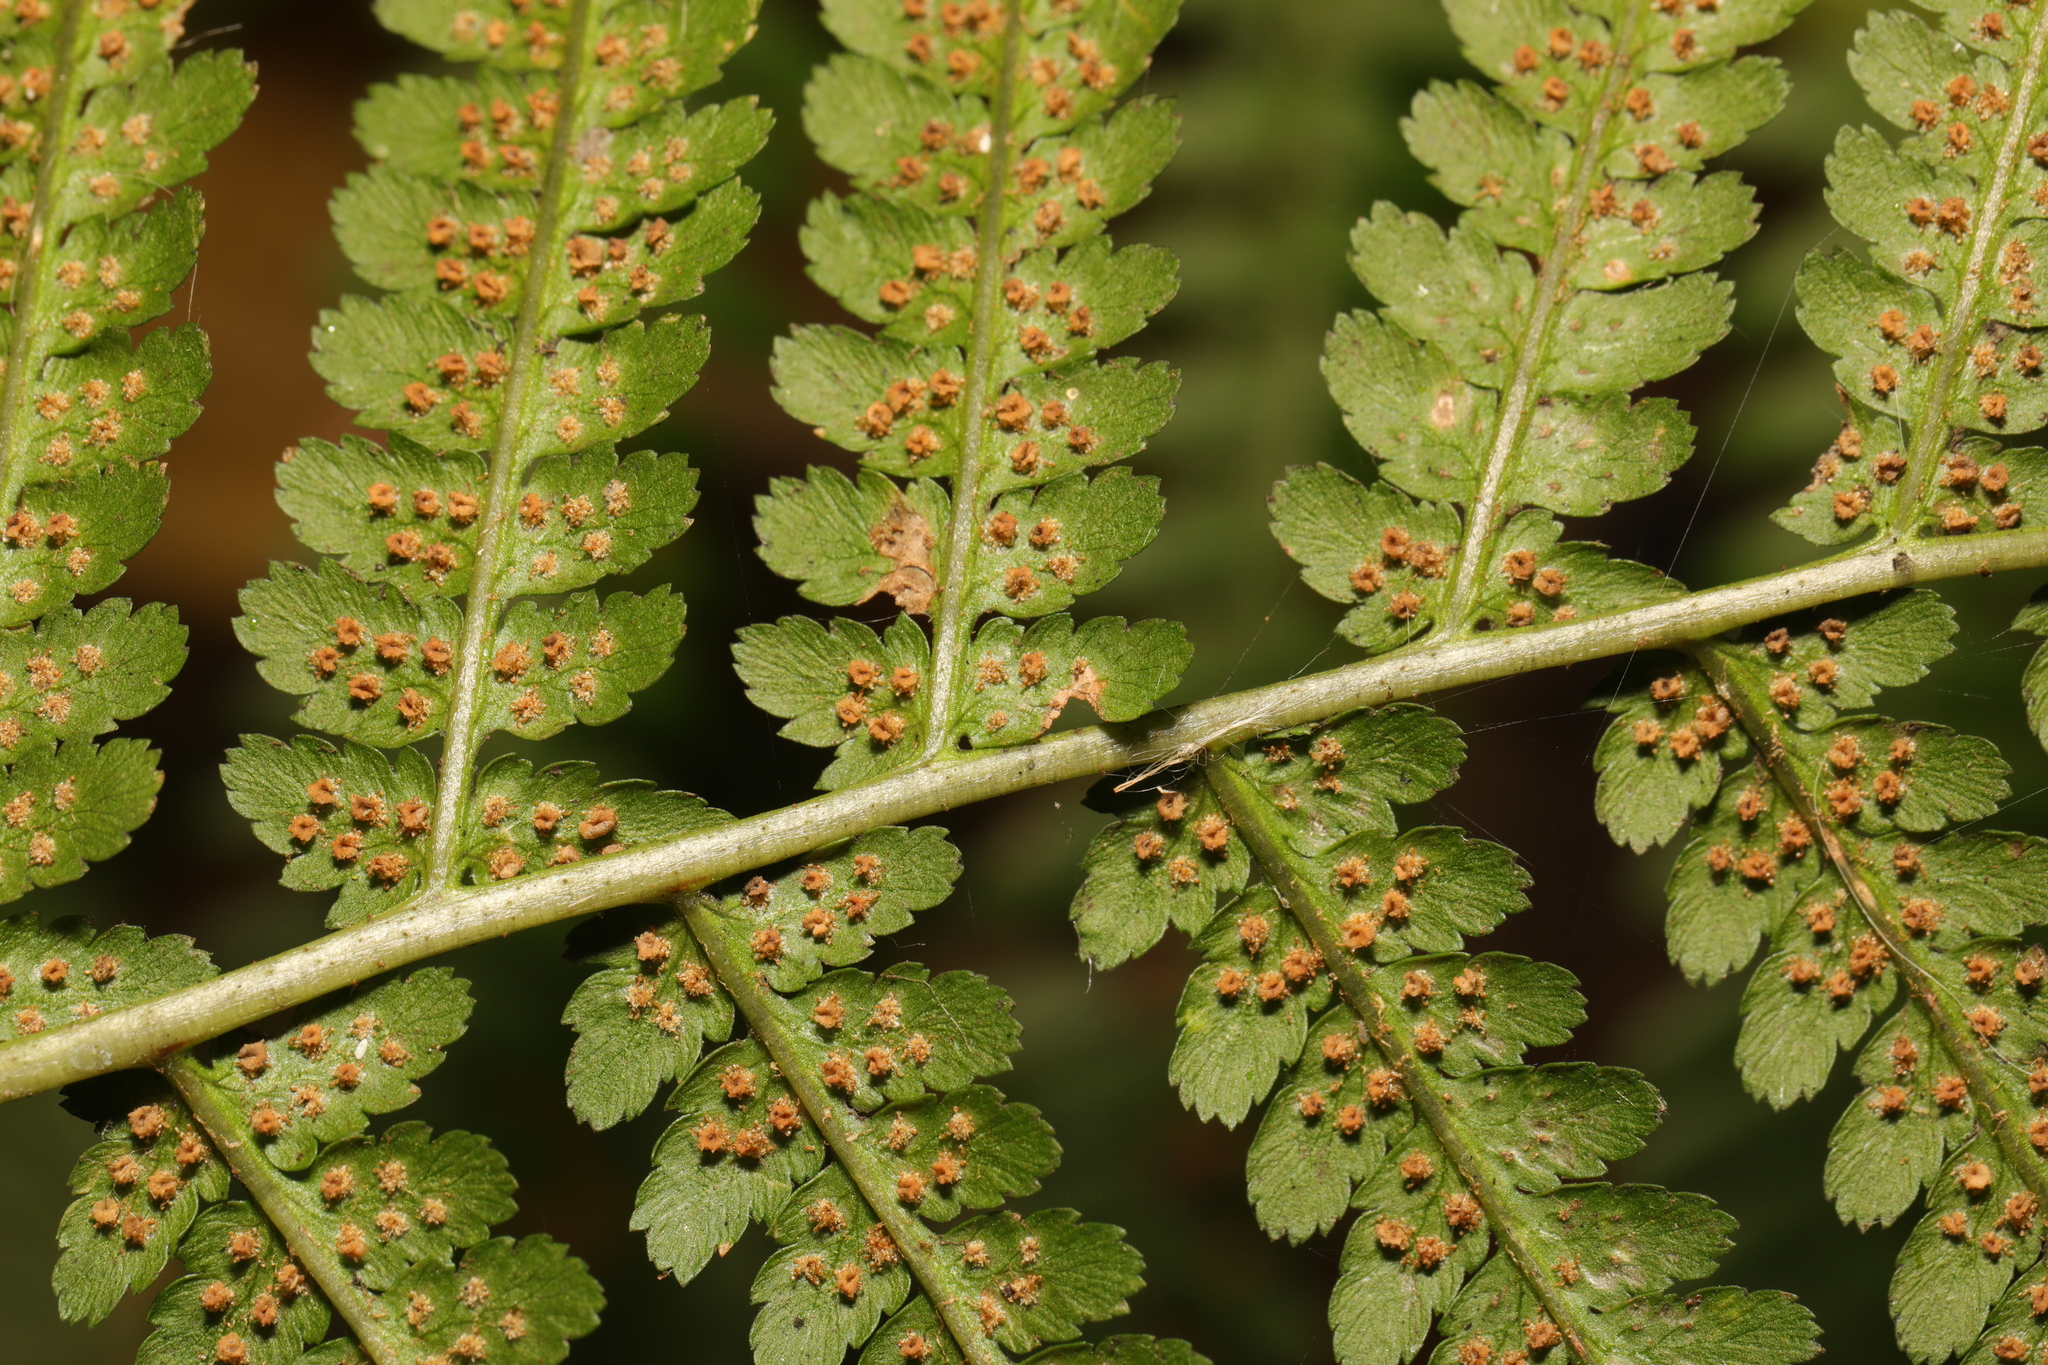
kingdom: Plantae
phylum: Tracheophyta
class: Polypodiopsida
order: Polypodiales
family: Dryopteridaceae
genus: Dryopteris
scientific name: Dryopteris filix-mas
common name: Male fern
